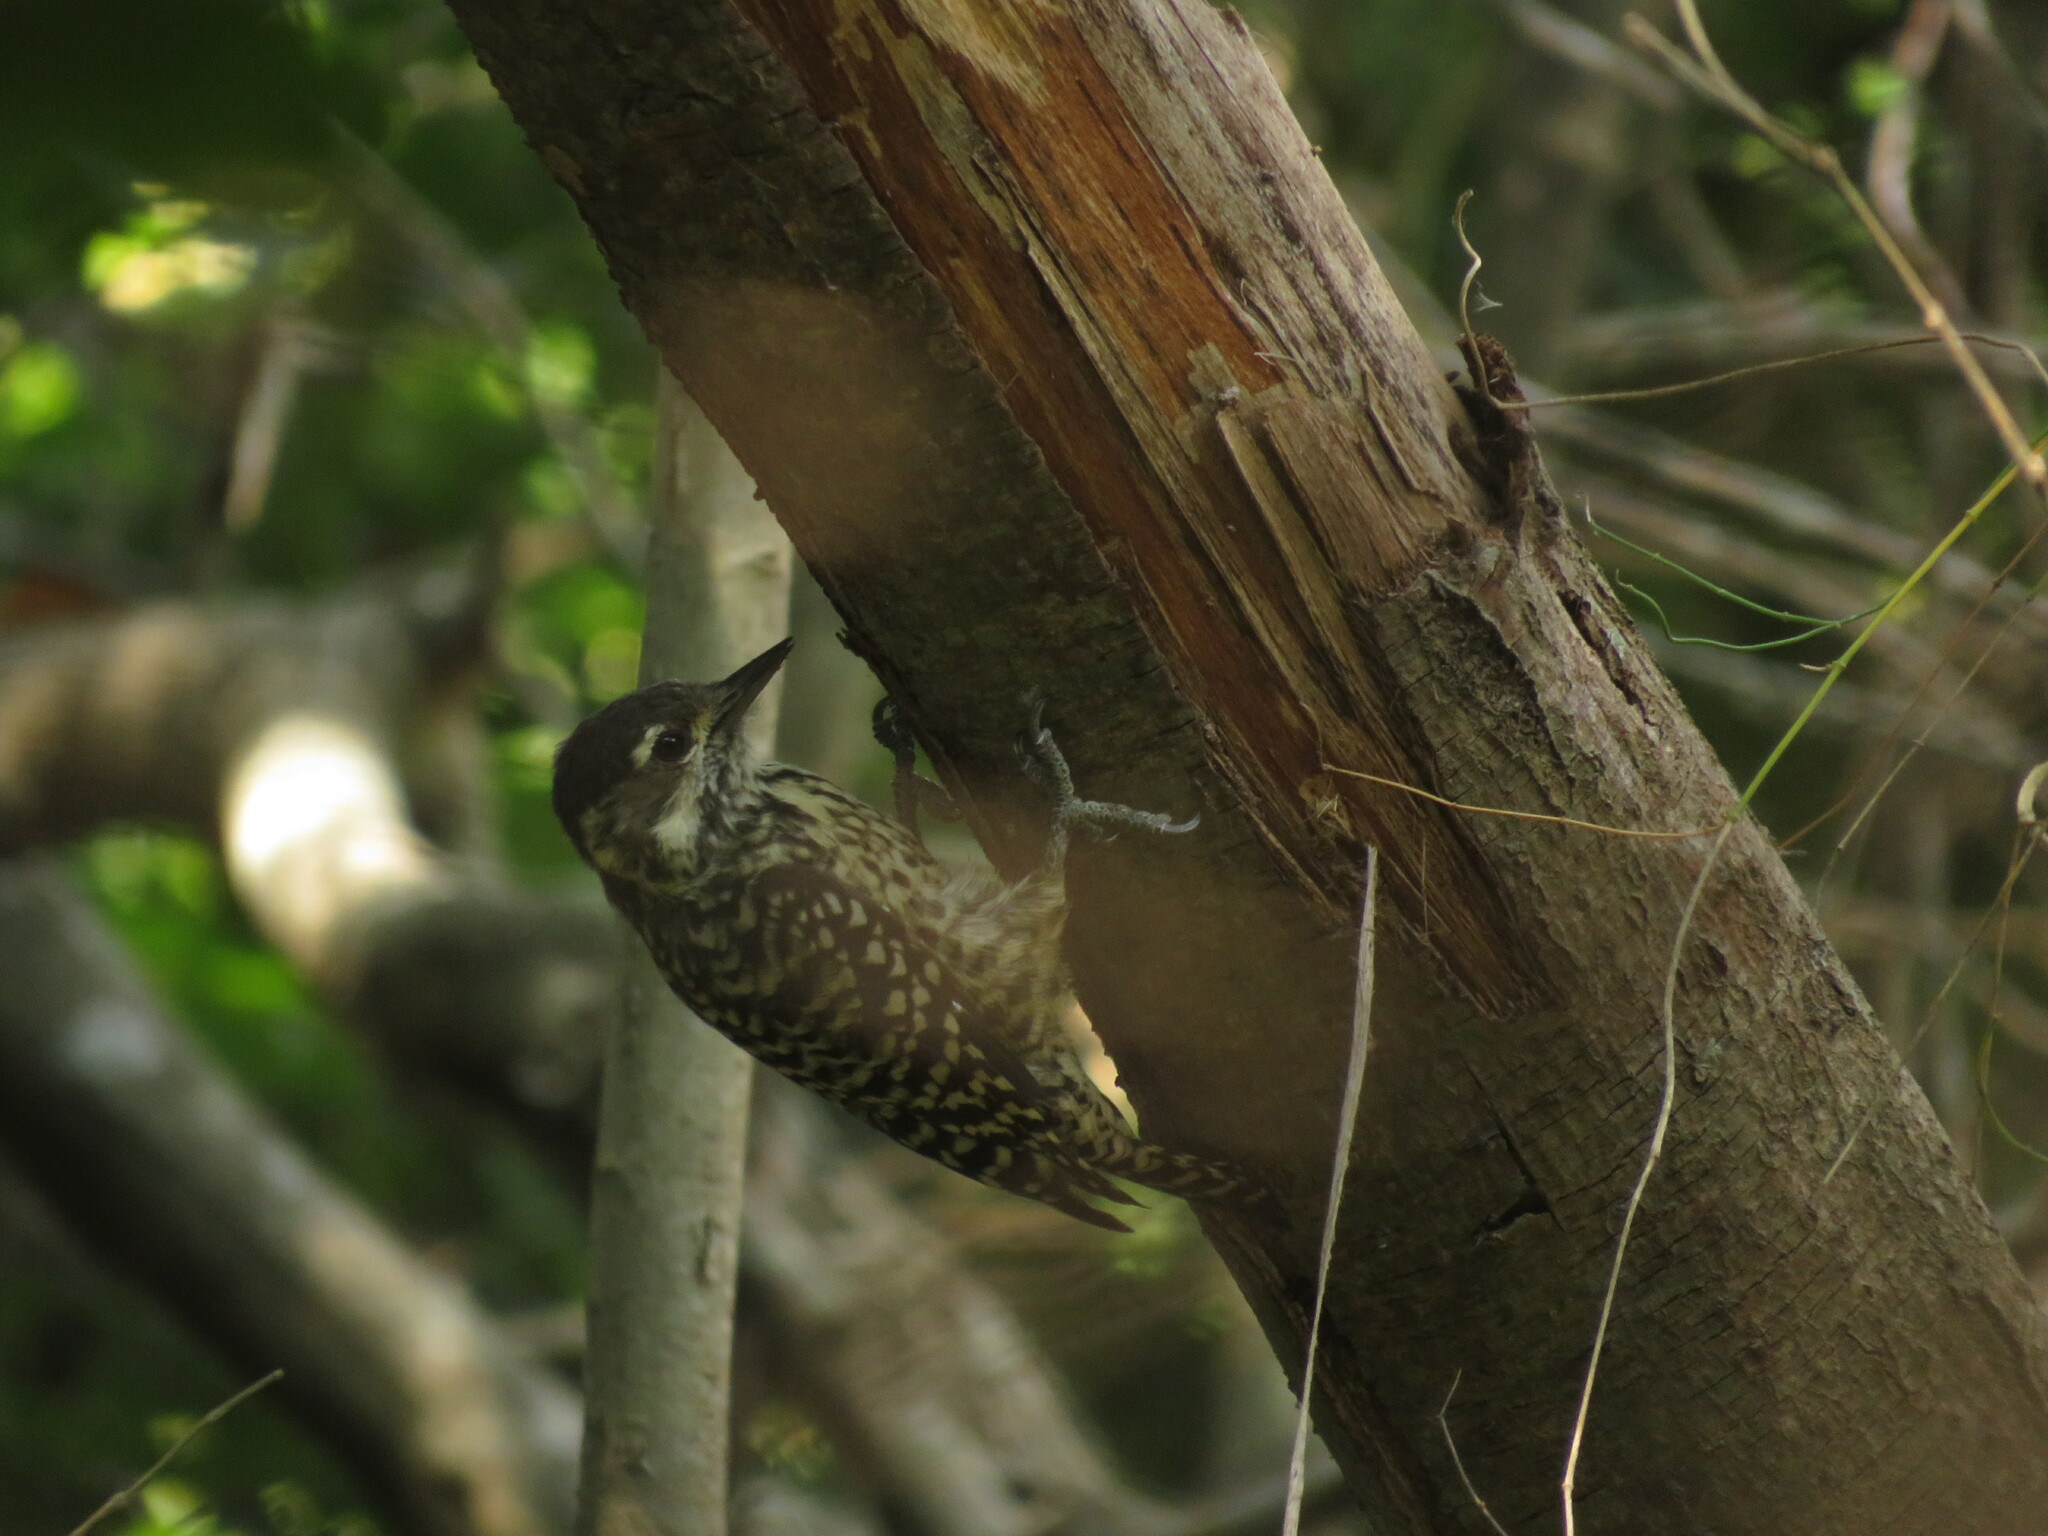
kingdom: Animalia
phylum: Chordata
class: Aves
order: Piciformes
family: Picidae
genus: Veniliornis
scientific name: Veniliornis mixtus
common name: Checkered woodpecker
